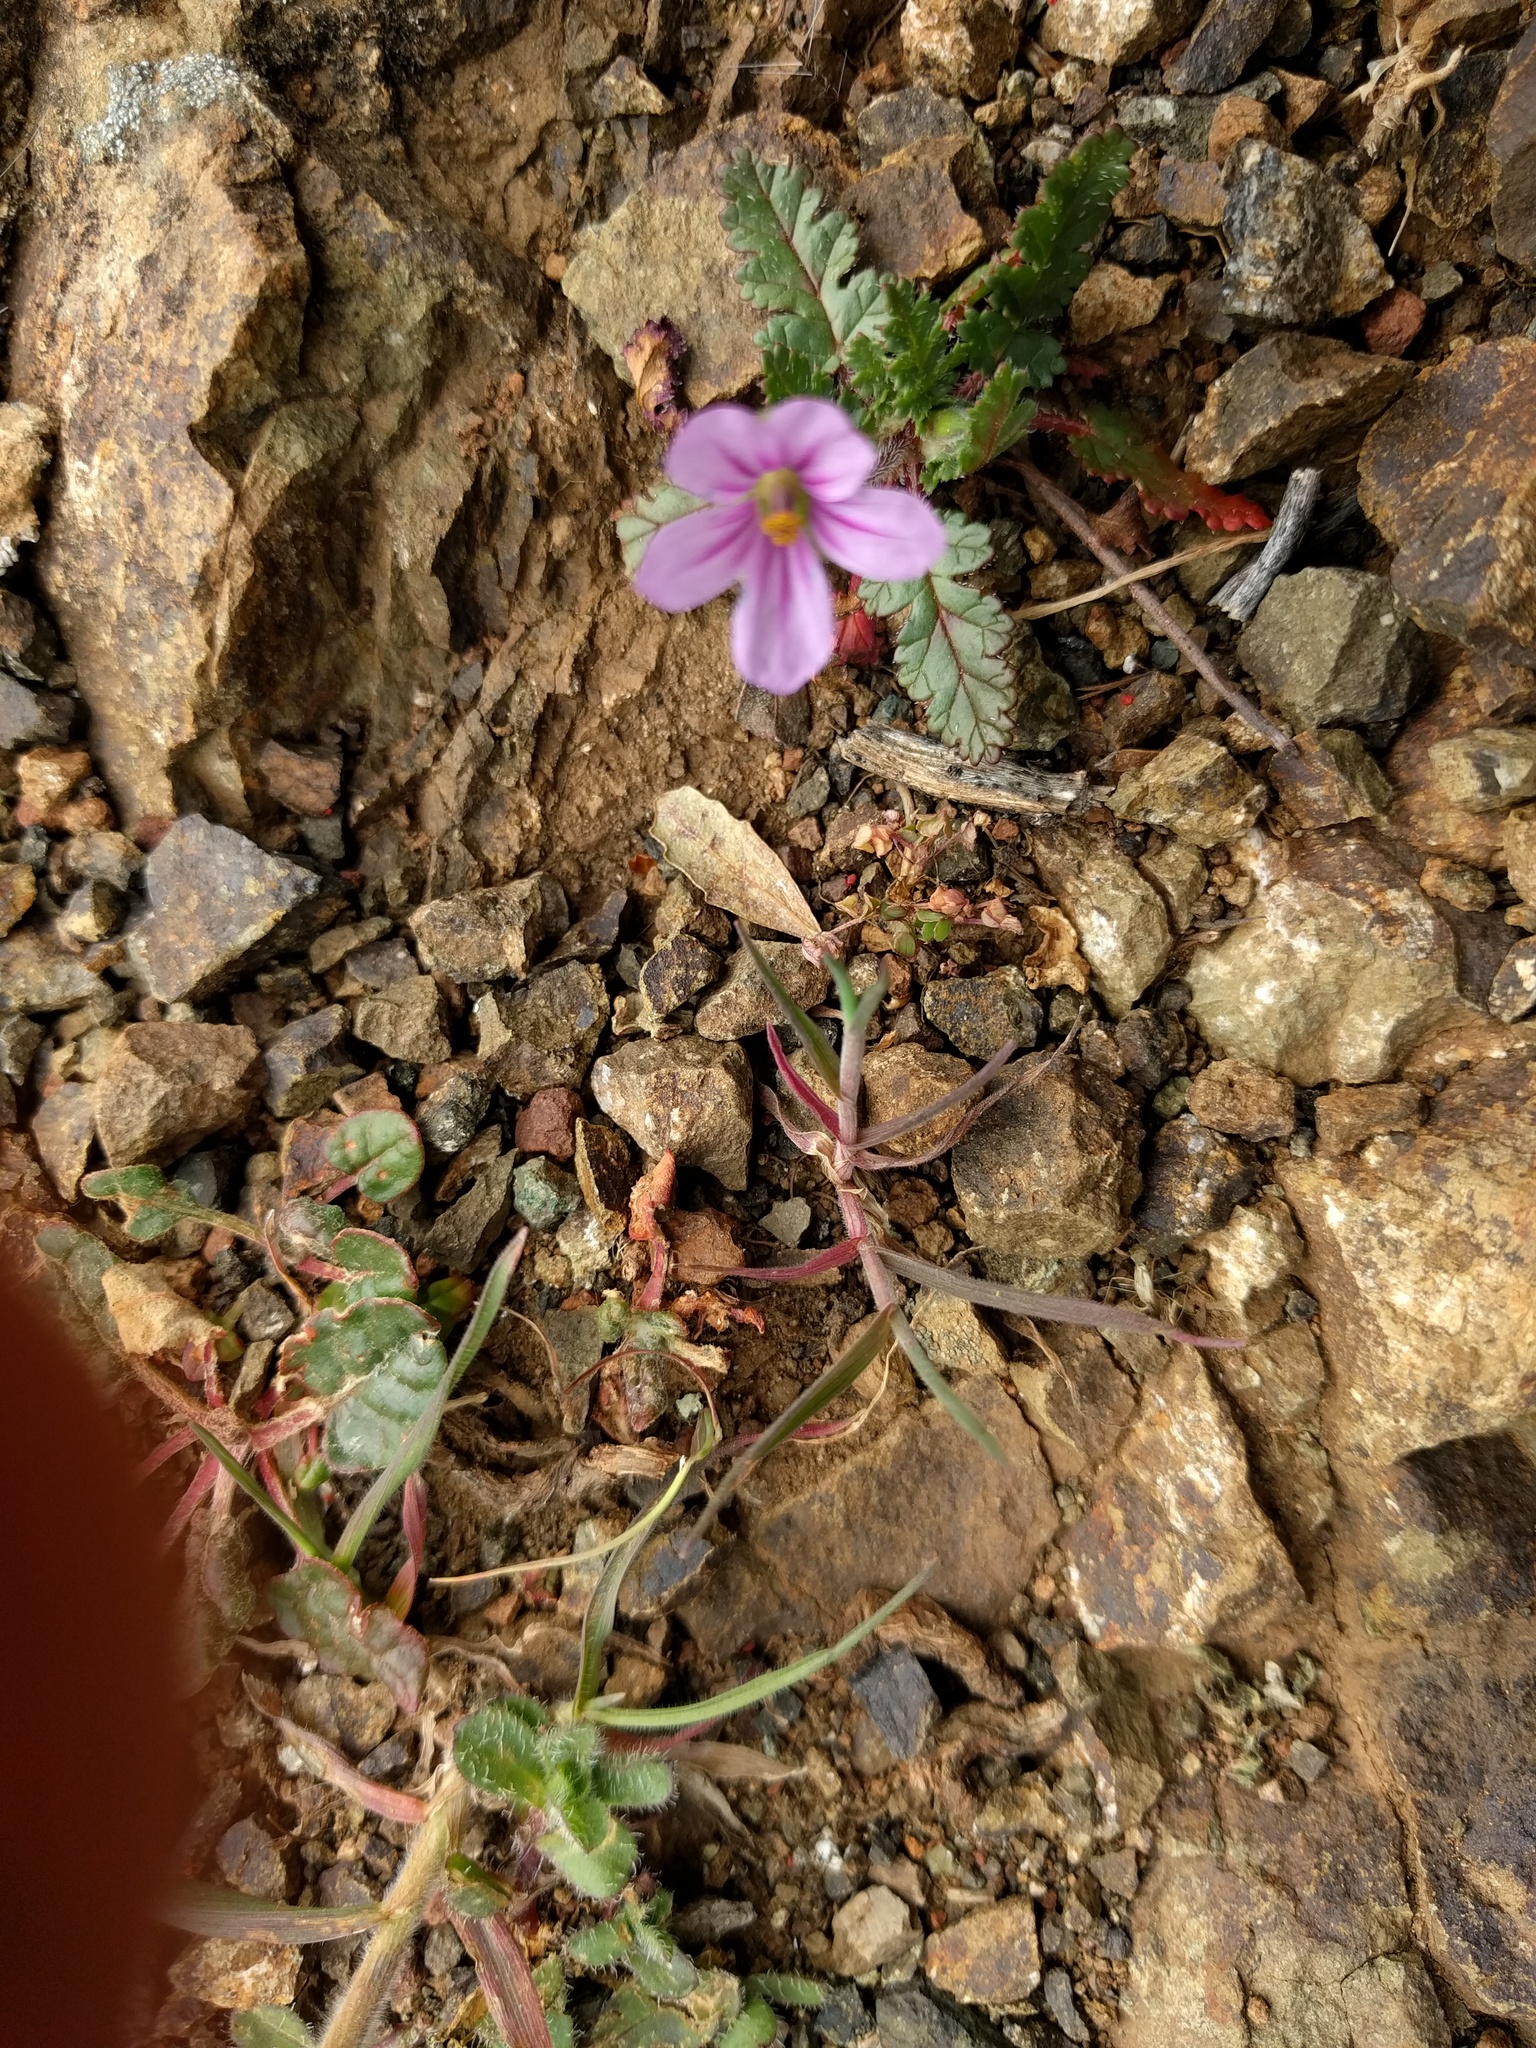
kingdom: Plantae
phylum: Tracheophyta
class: Magnoliopsida
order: Geraniales
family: Geraniaceae
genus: Erodium
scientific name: Erodium botrys
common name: Mediterranean stork's-bill
